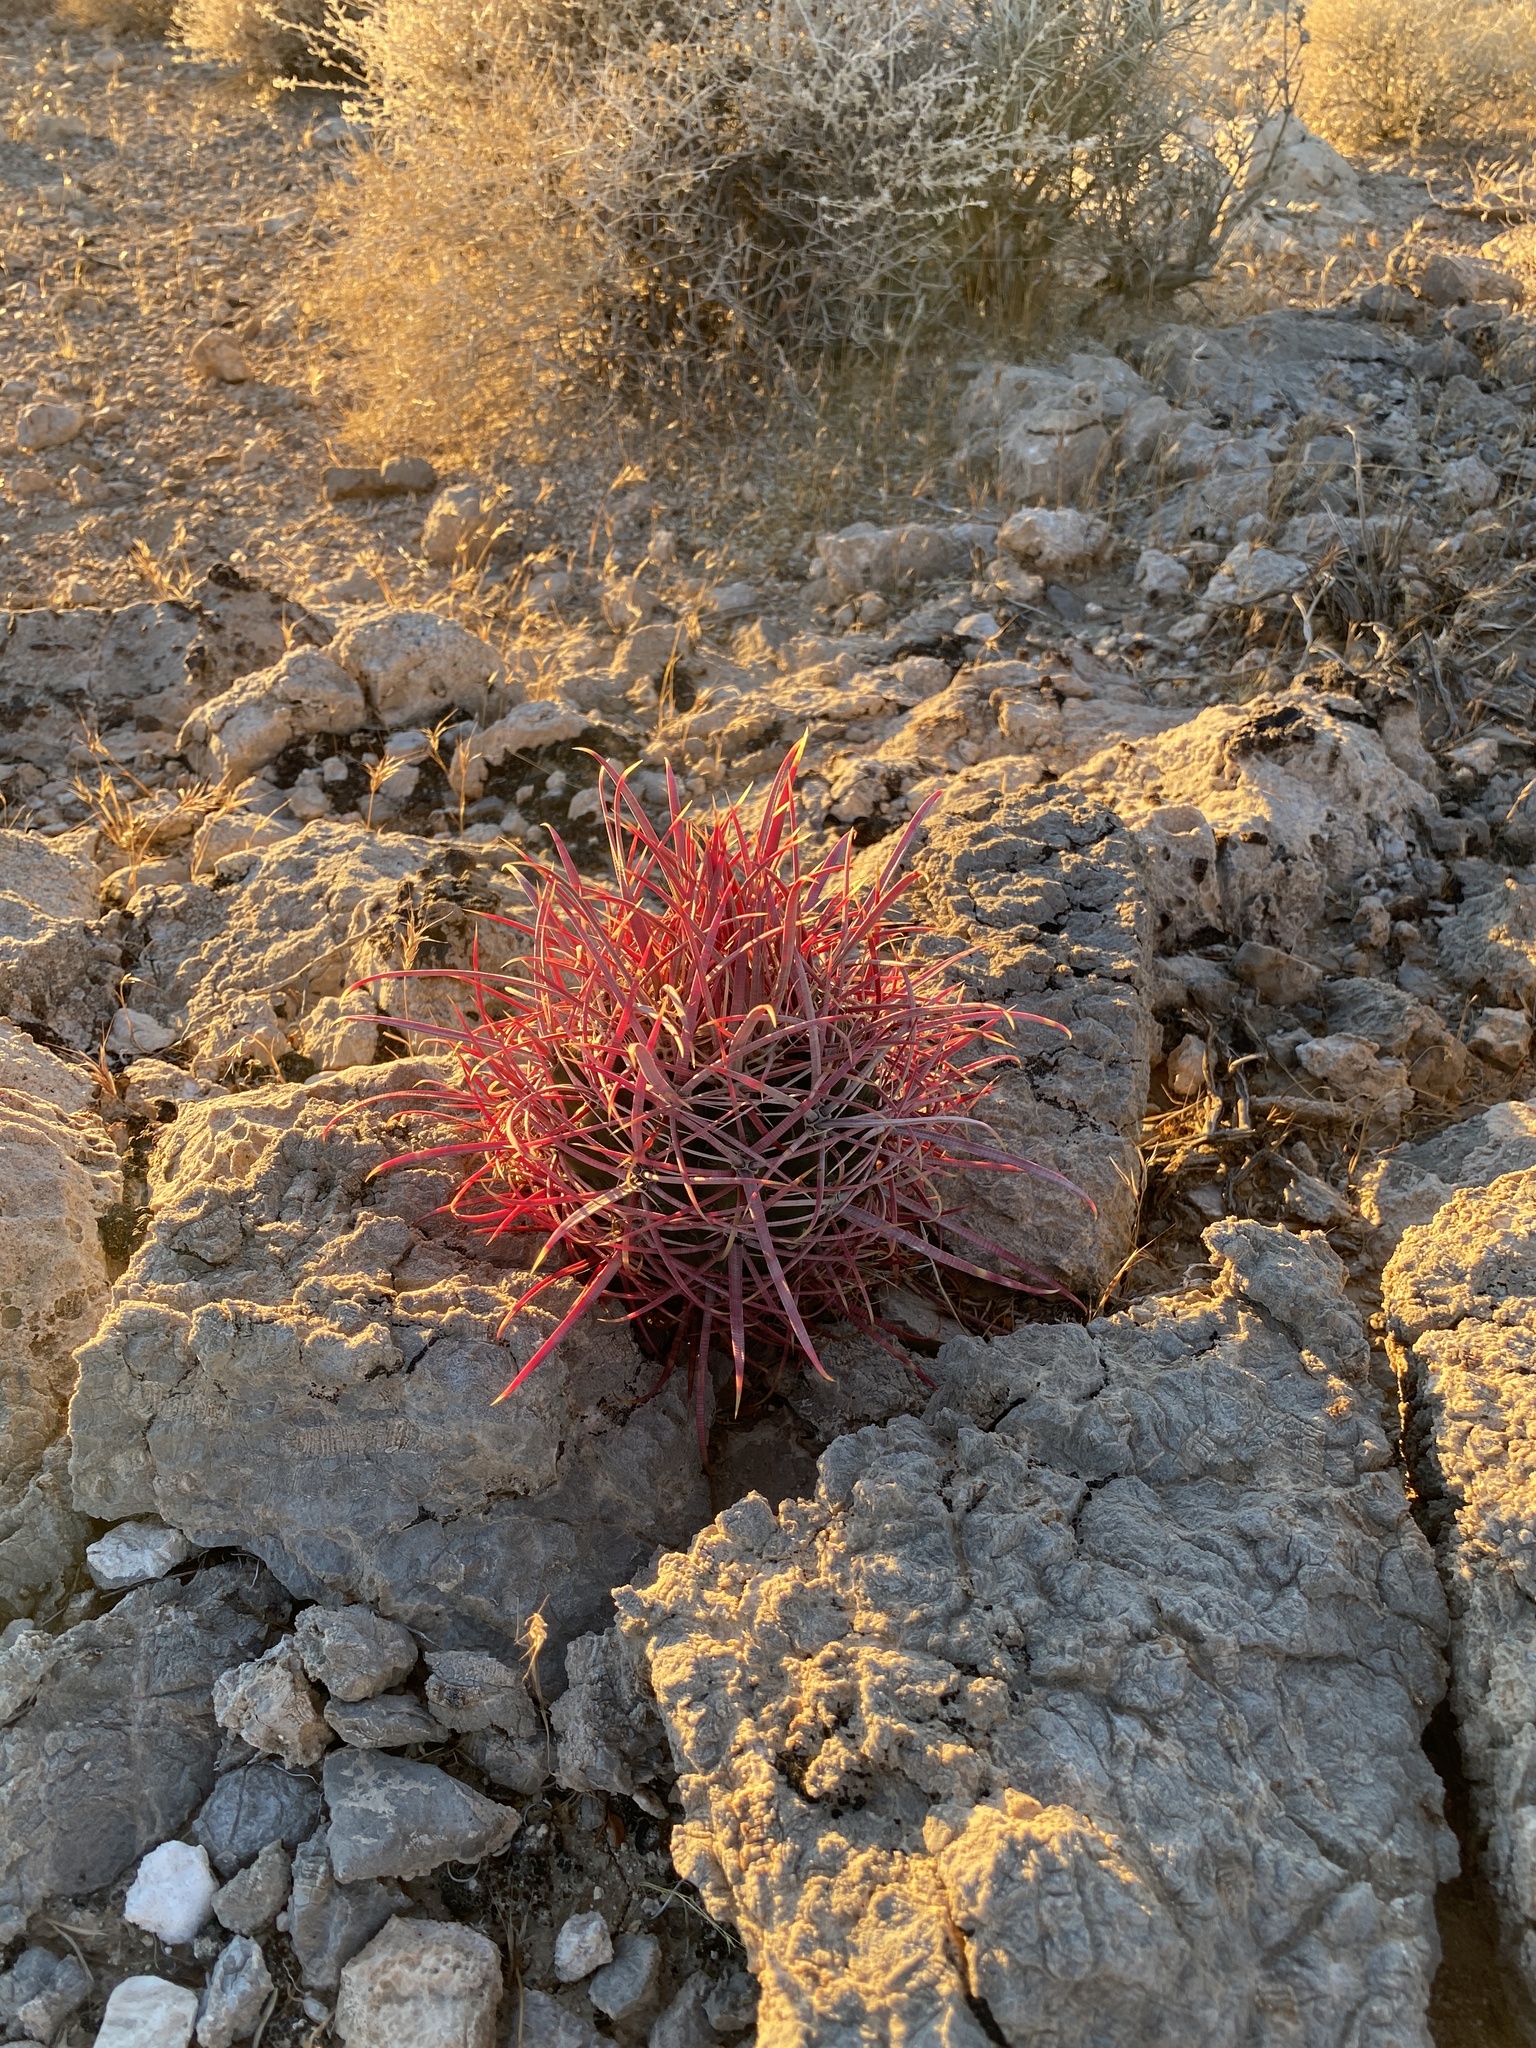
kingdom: Plantae
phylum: Tracheophyta
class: Magnoliopsida
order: Caryophyllales
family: Cactaceae
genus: Ferocactus
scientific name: Ferocactus cylindraceus
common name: California barrel cactus
